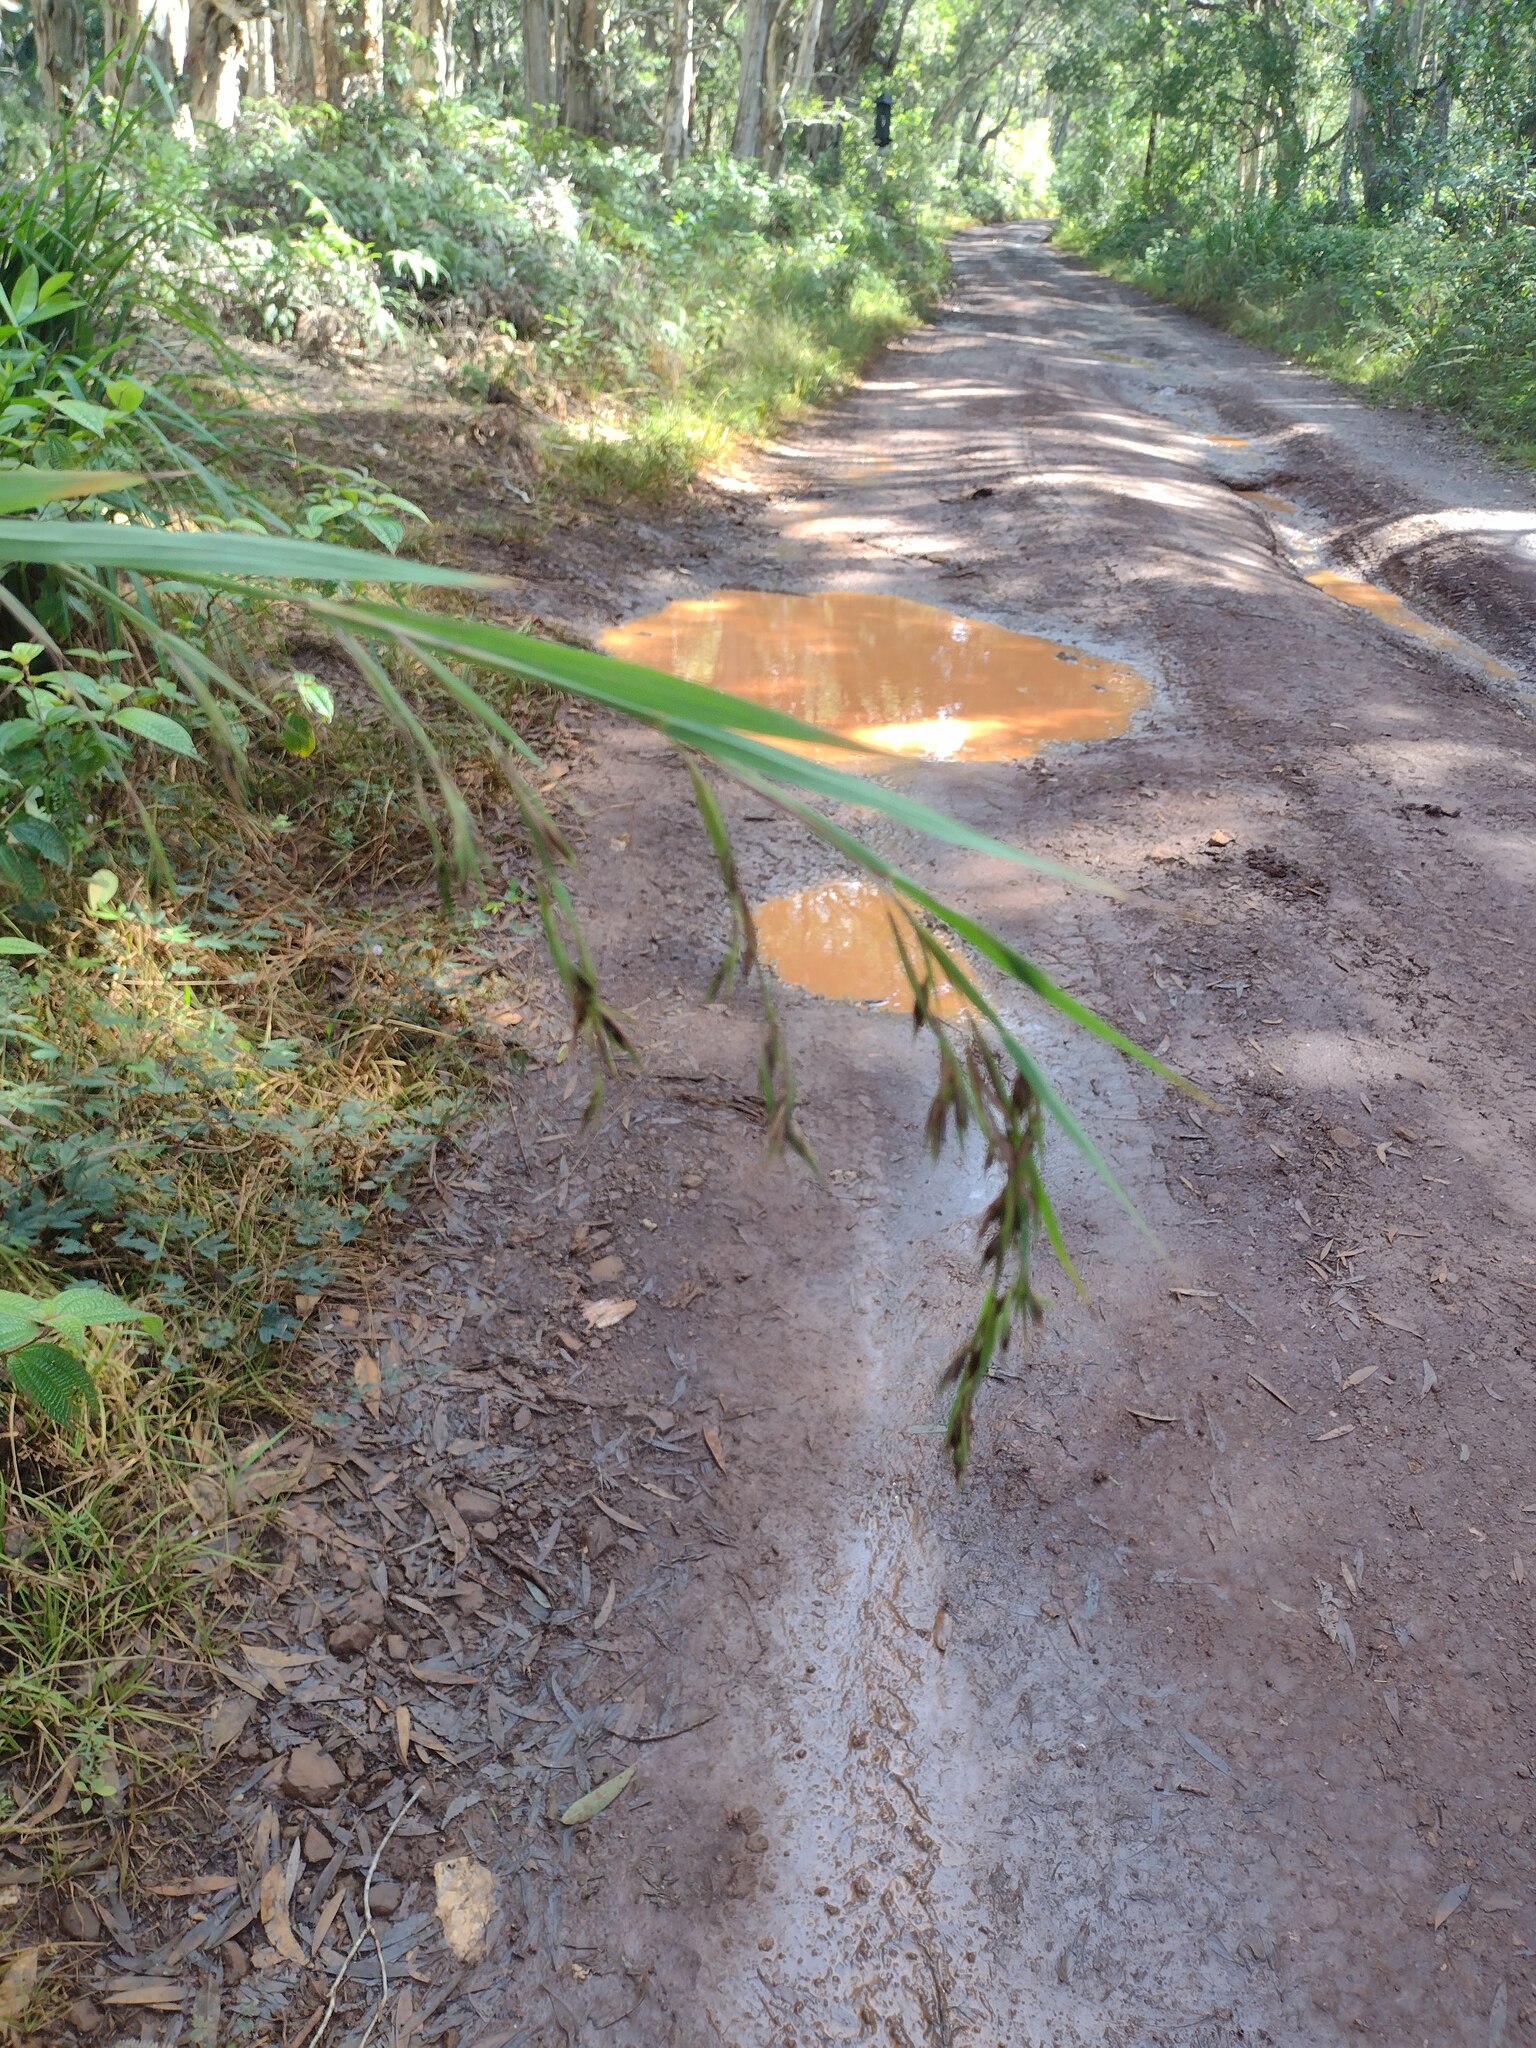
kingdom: Plantae
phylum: Tracheophyta
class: Liliopsida
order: Poales
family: Poaceae
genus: Themeda
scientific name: Themeda villosa
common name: Silky kangaroo grass
